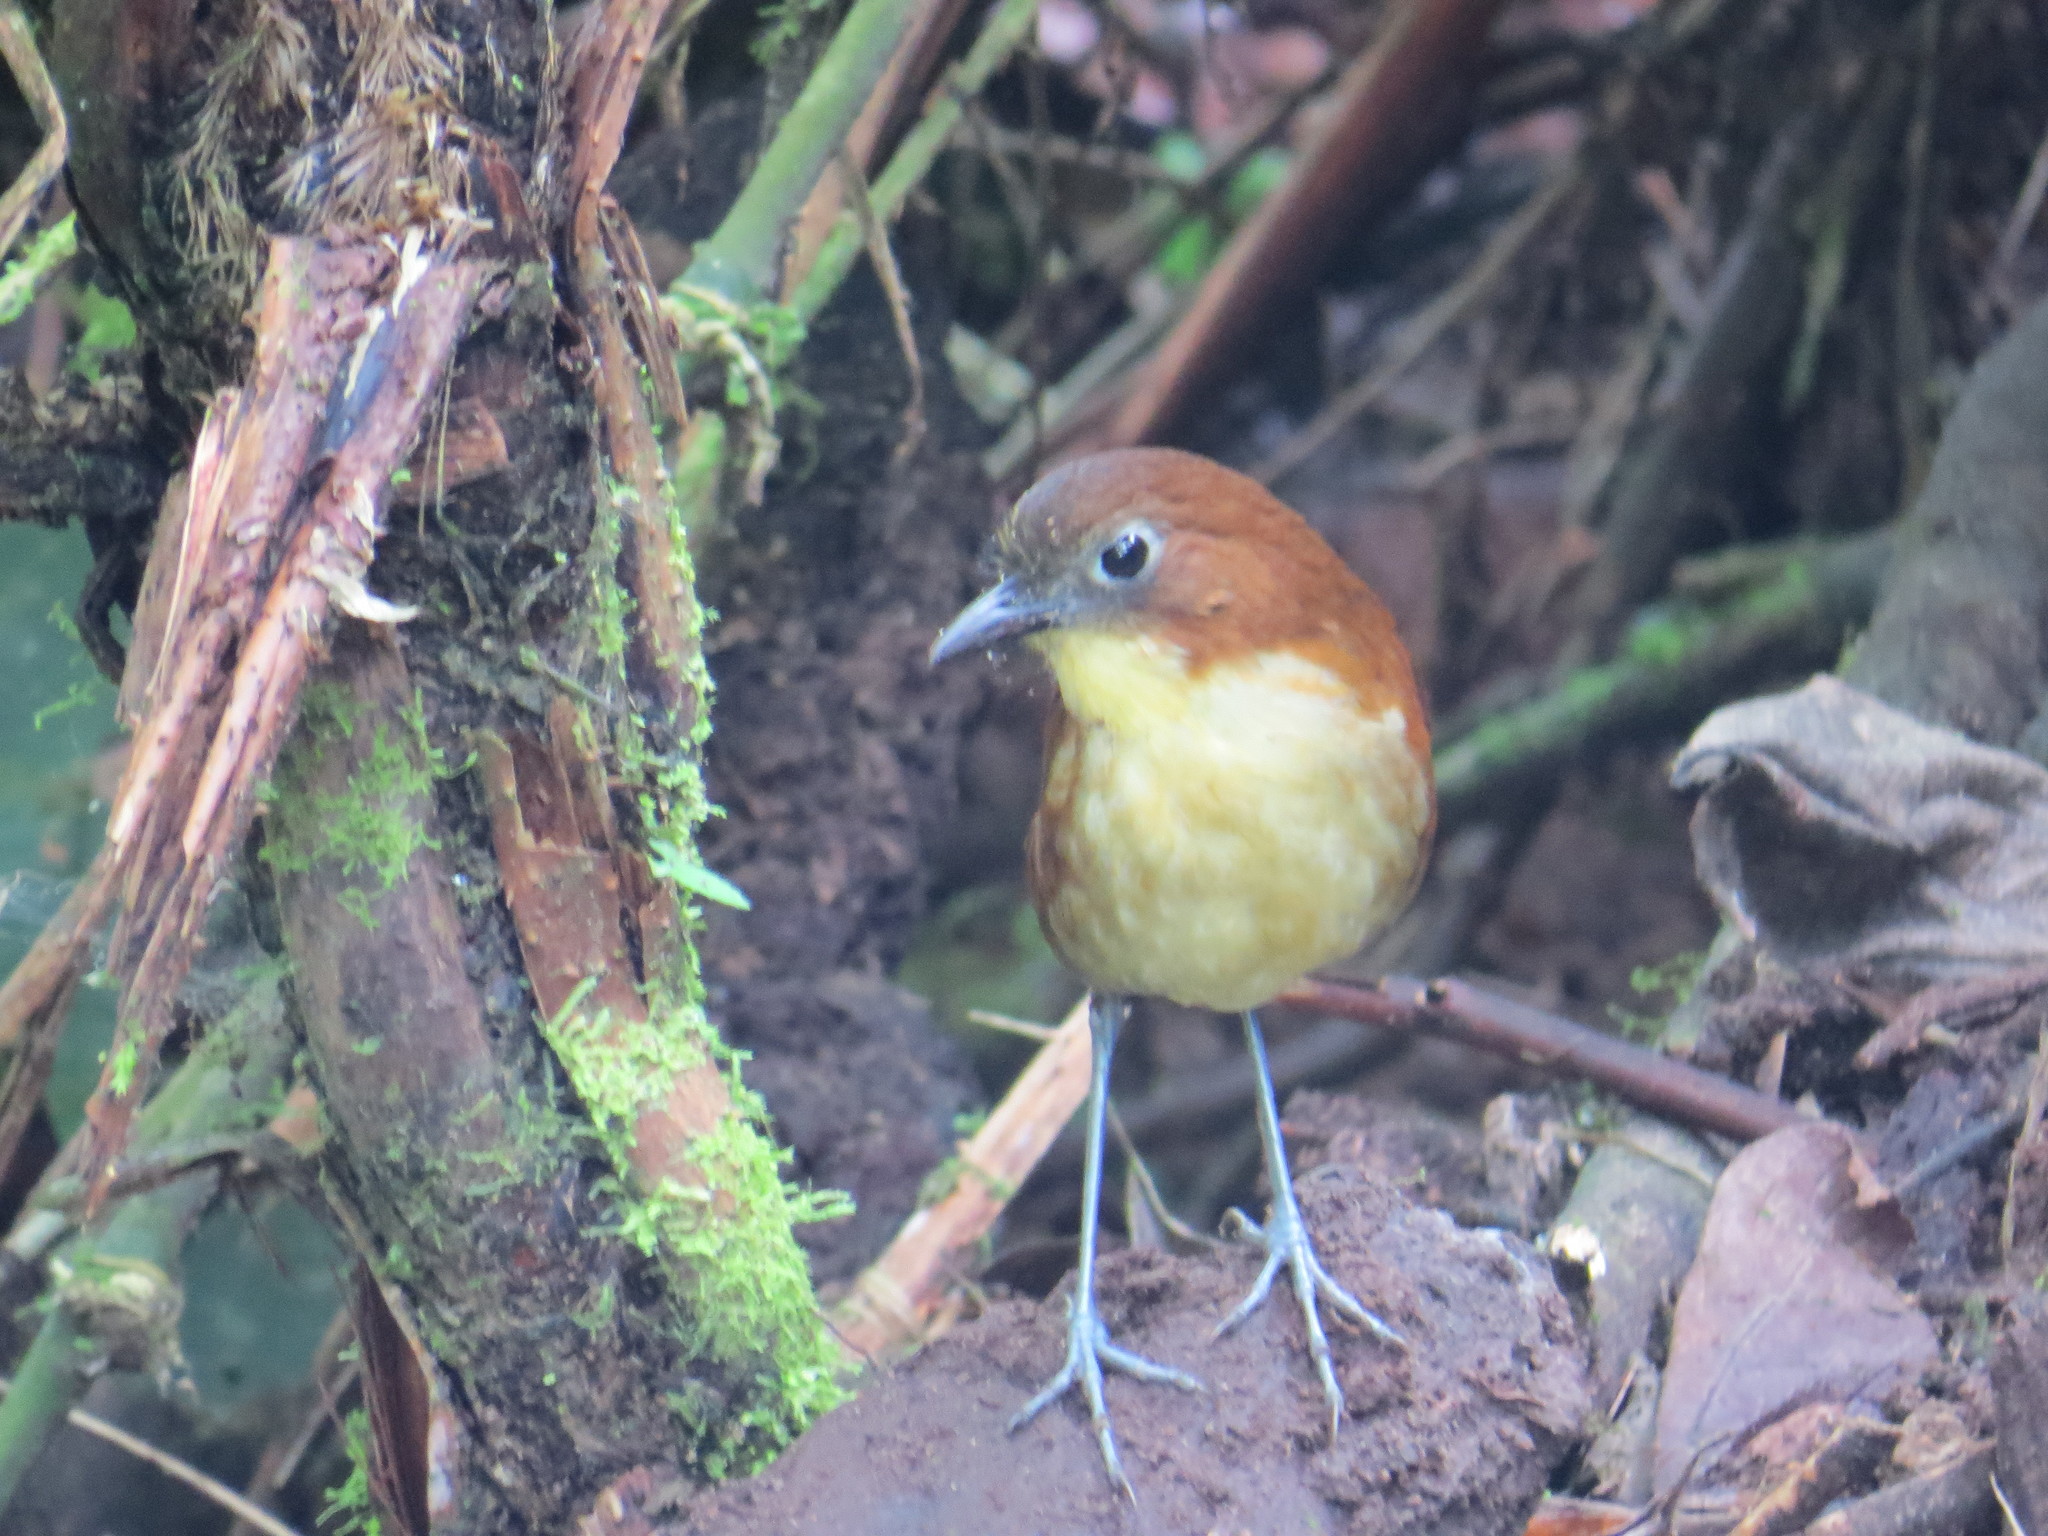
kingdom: Animalia
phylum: Chordata
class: Aves
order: Passeriformes
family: Grallariidae
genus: Grallaria
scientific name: Grallaria flavotincta
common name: Yellow-breasted antpitta
